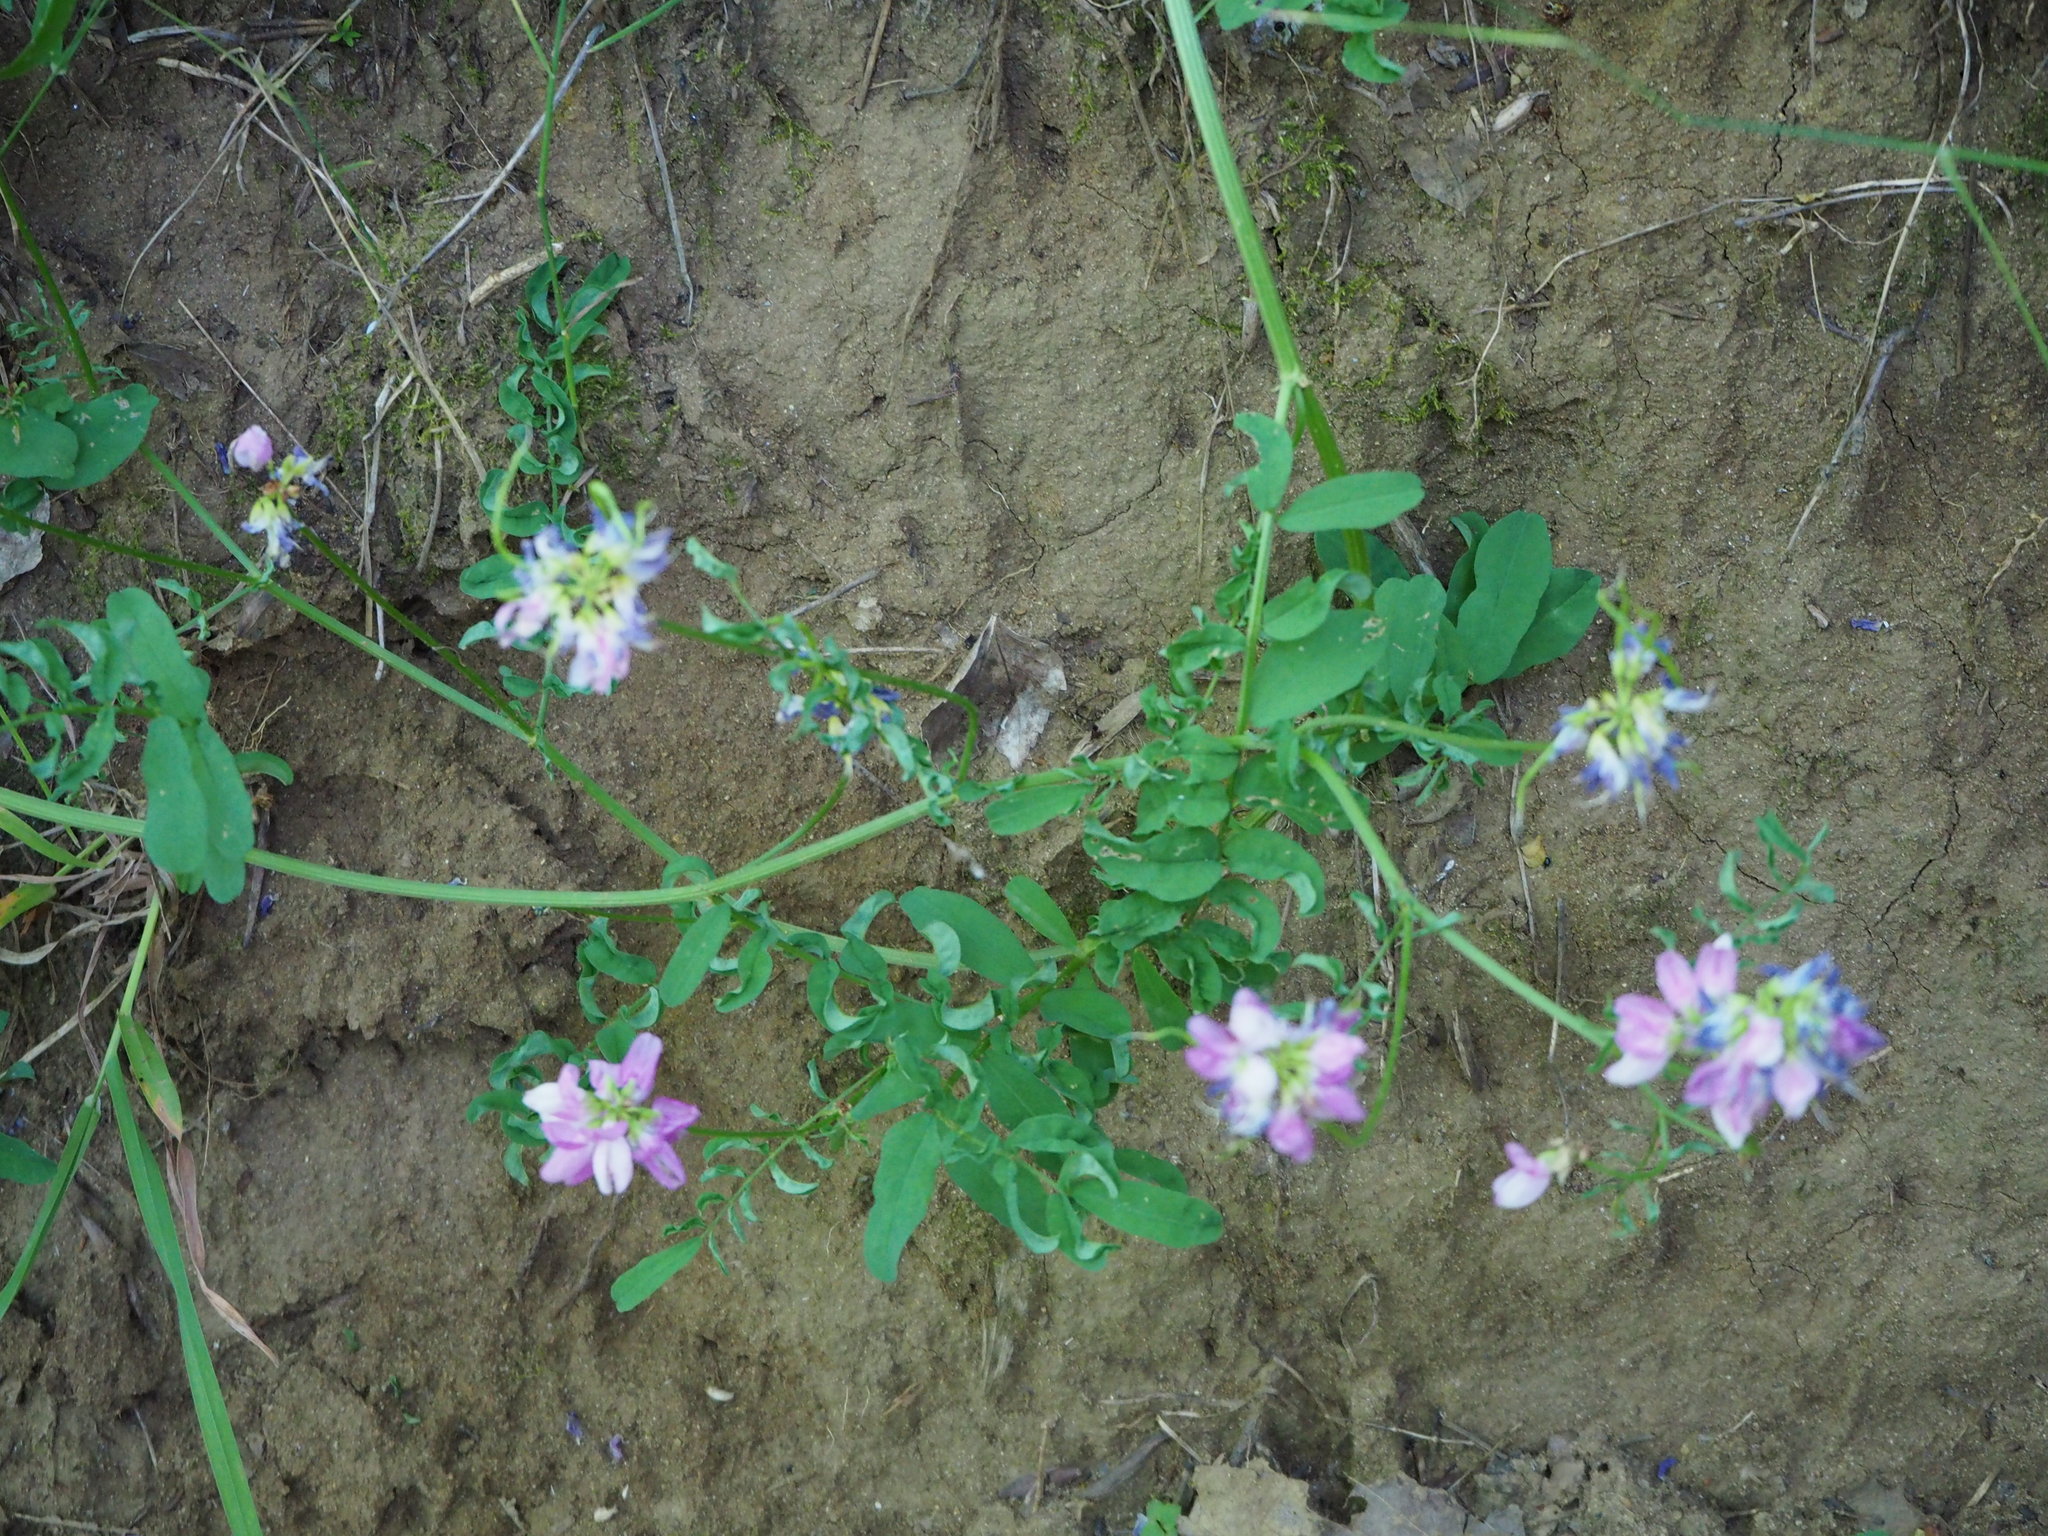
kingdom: Plantae
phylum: Tracheophyta
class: Magnoliopsida
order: Fabales
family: Fabaceae
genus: Coronilla
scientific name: Coronilla varia
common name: Crownvetch
